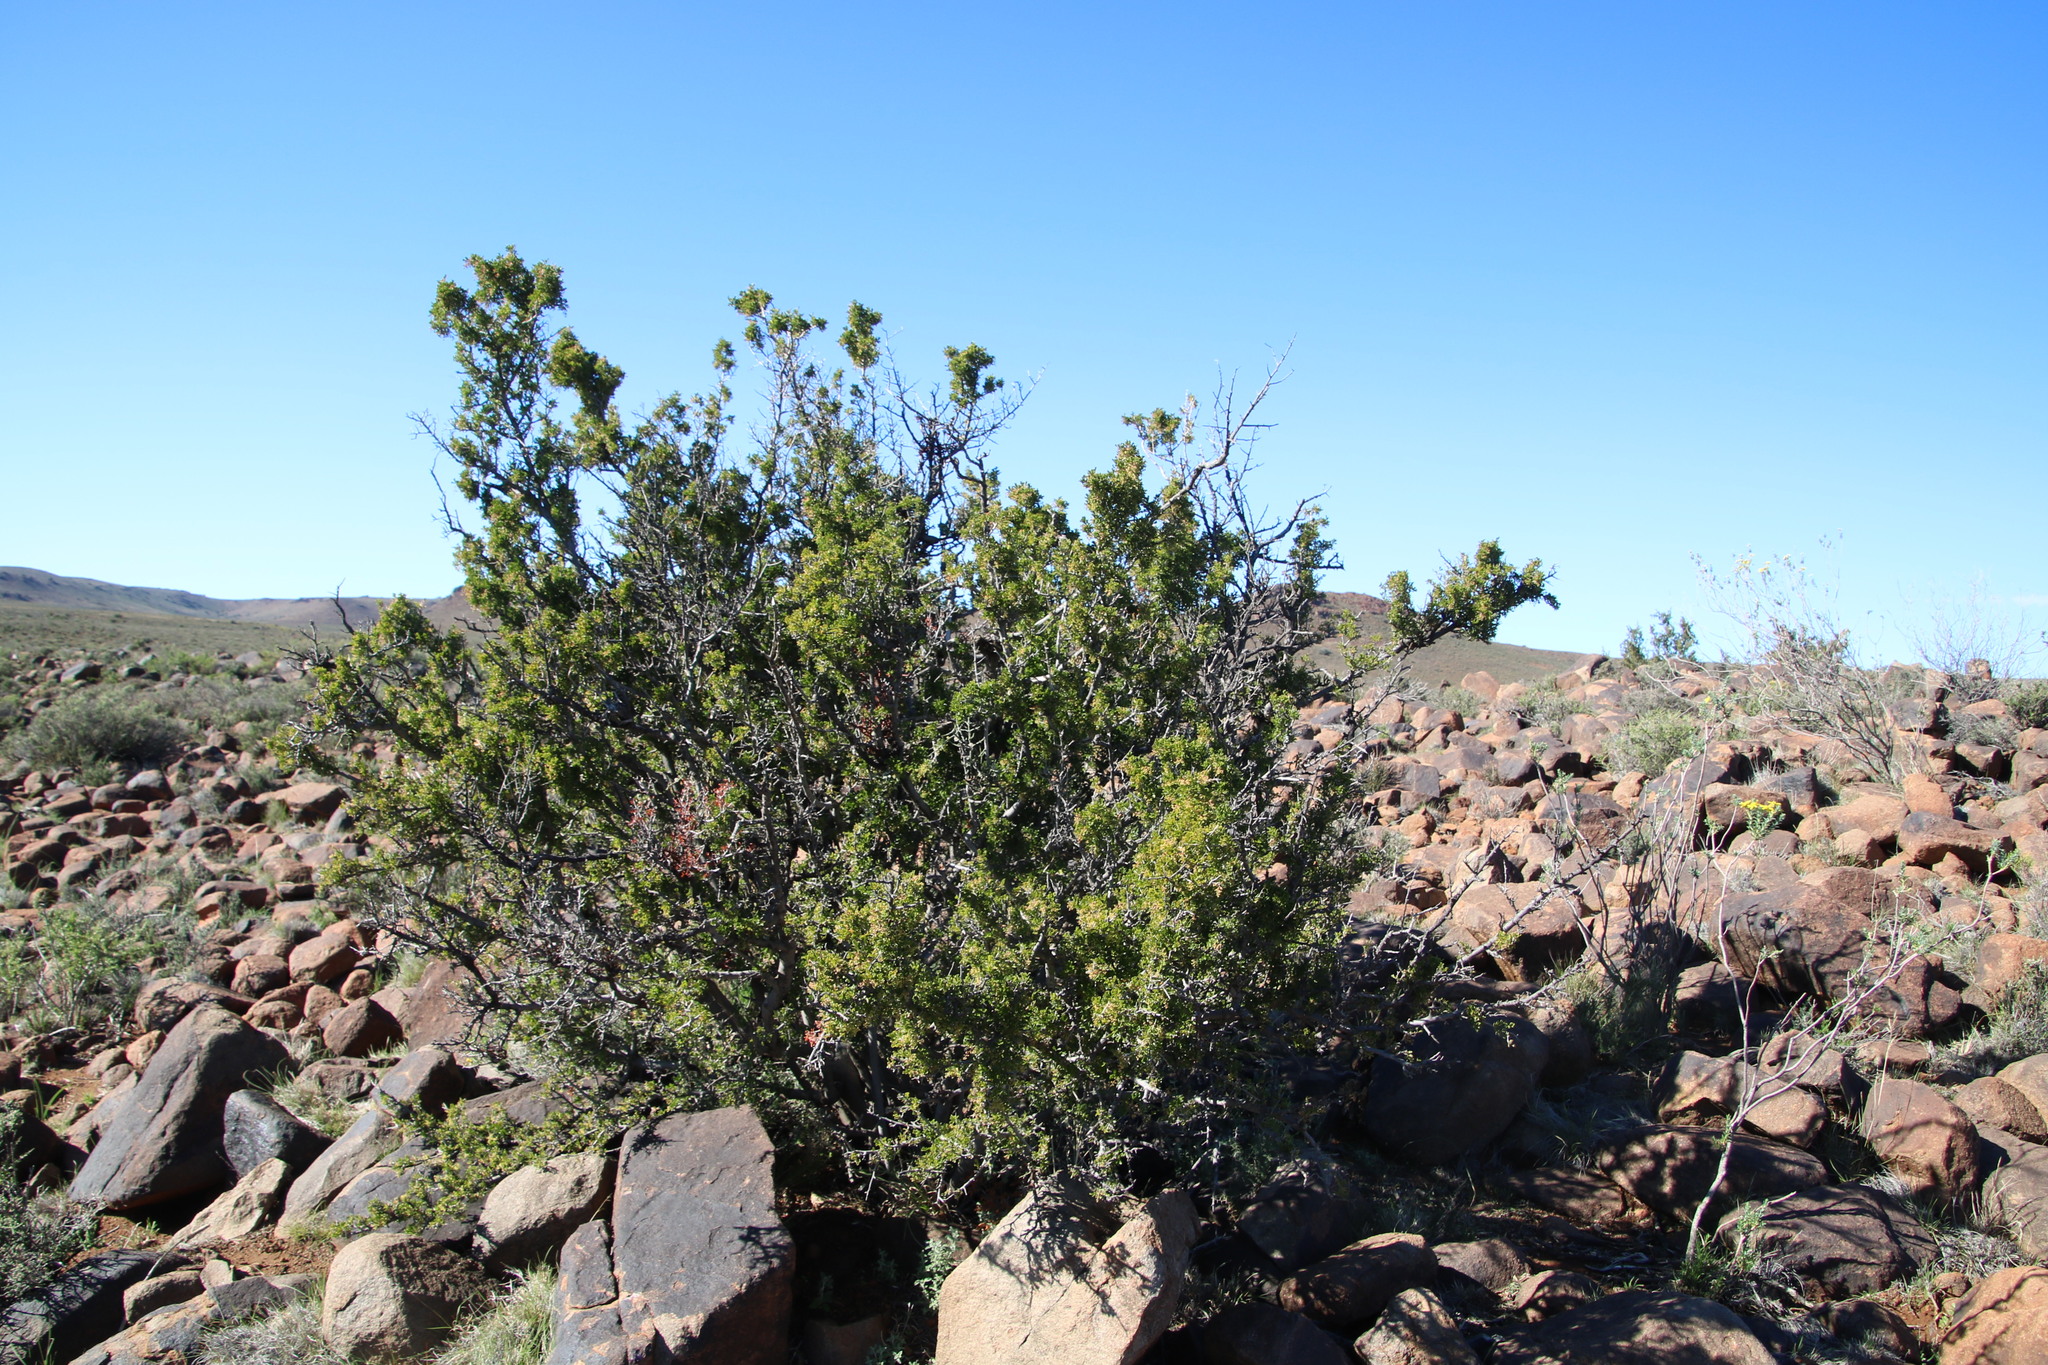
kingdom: Plantae
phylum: Tracheophyta
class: Magnoliopsida
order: Sapindales
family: Anacardiaceae
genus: Searsia
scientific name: Searsia burchellii
